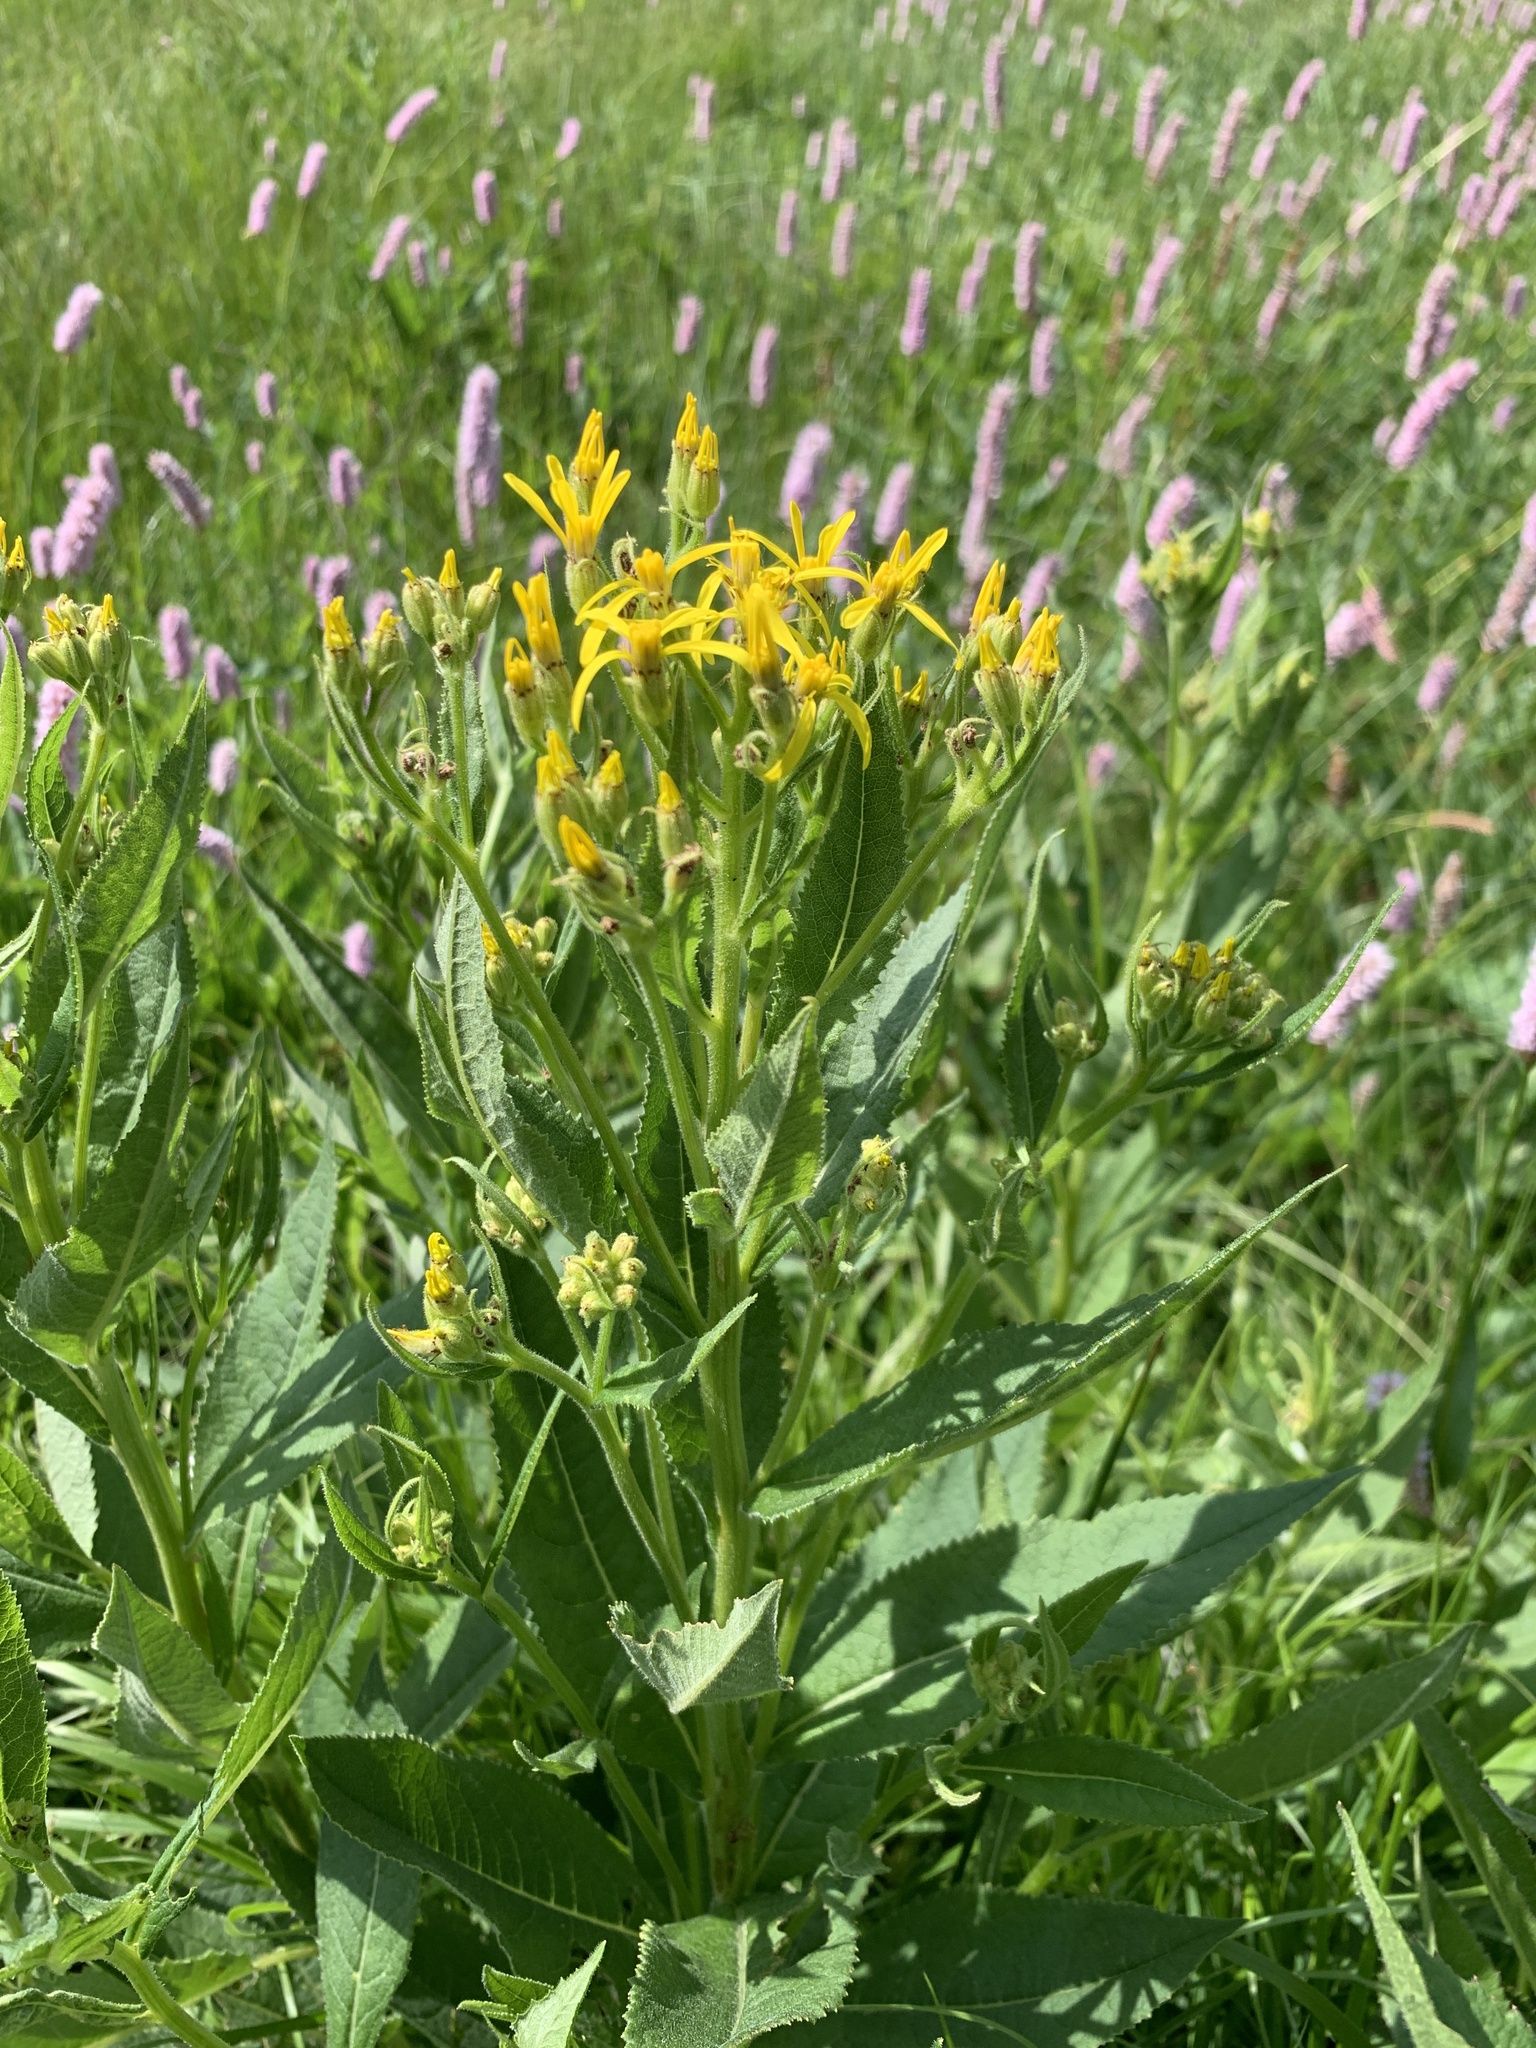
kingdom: Plantae
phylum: Tracheophyta
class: Magnoliopsida
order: Asterales
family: Asteraceae
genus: Senecio
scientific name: Senecio hercynicus
